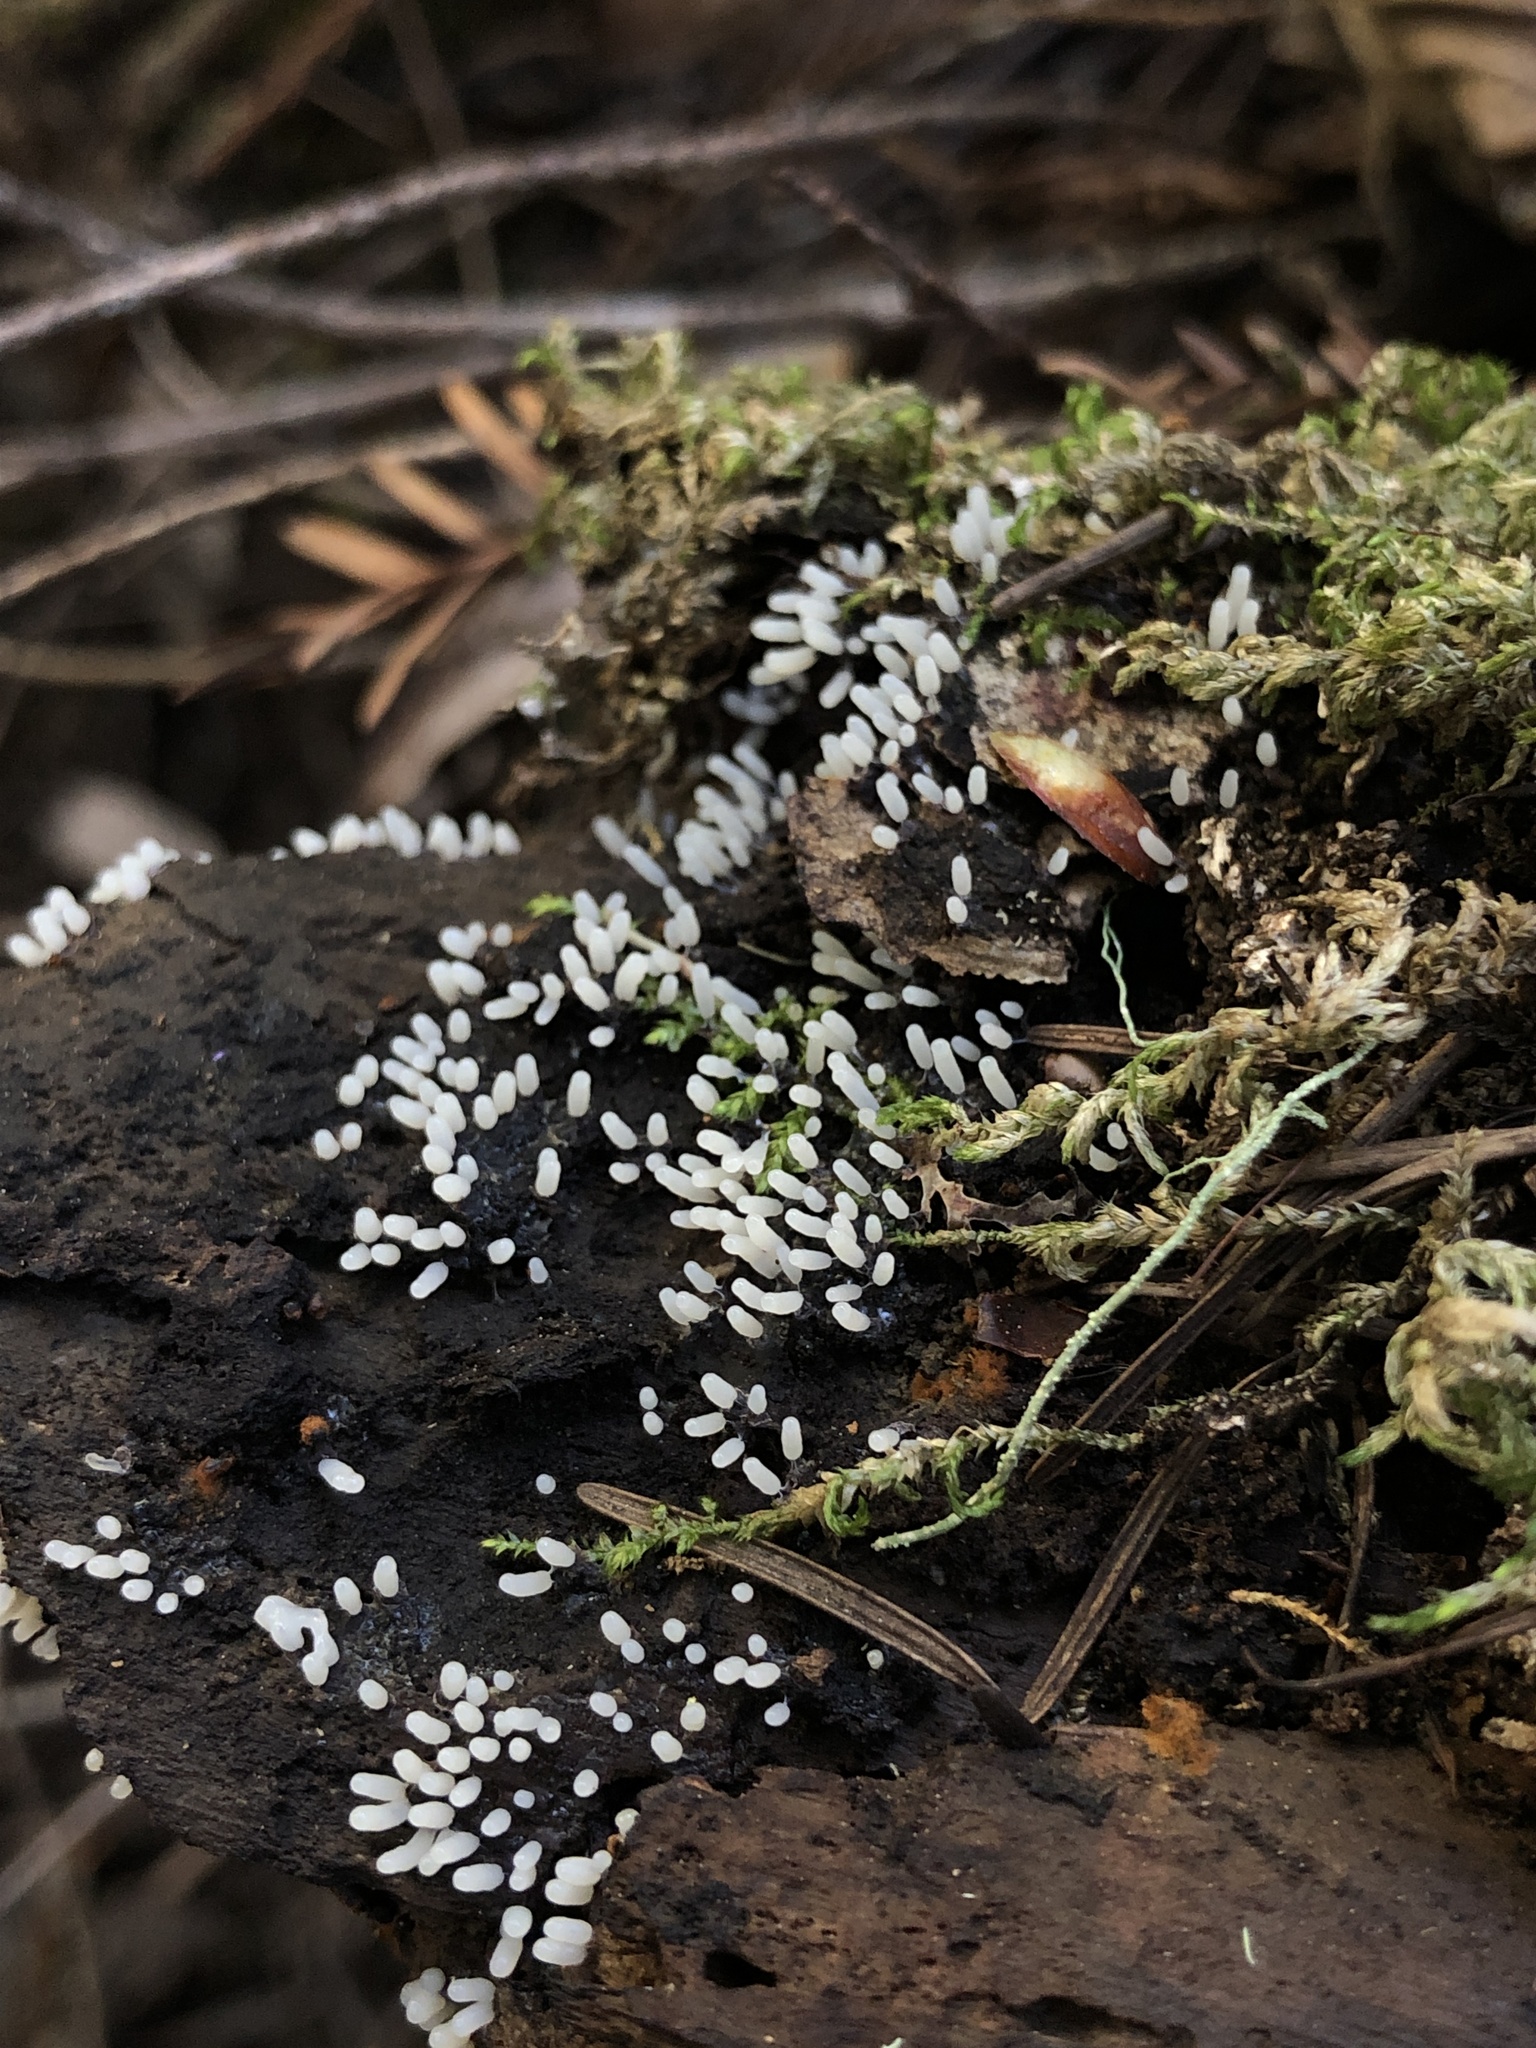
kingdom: Protozoa
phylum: Mycetozoa
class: Myxomycetes
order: Trichiales
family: Arcyriaceae
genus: Arcyria
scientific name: Arcyria cinerea
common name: White carnival candy slime mold
